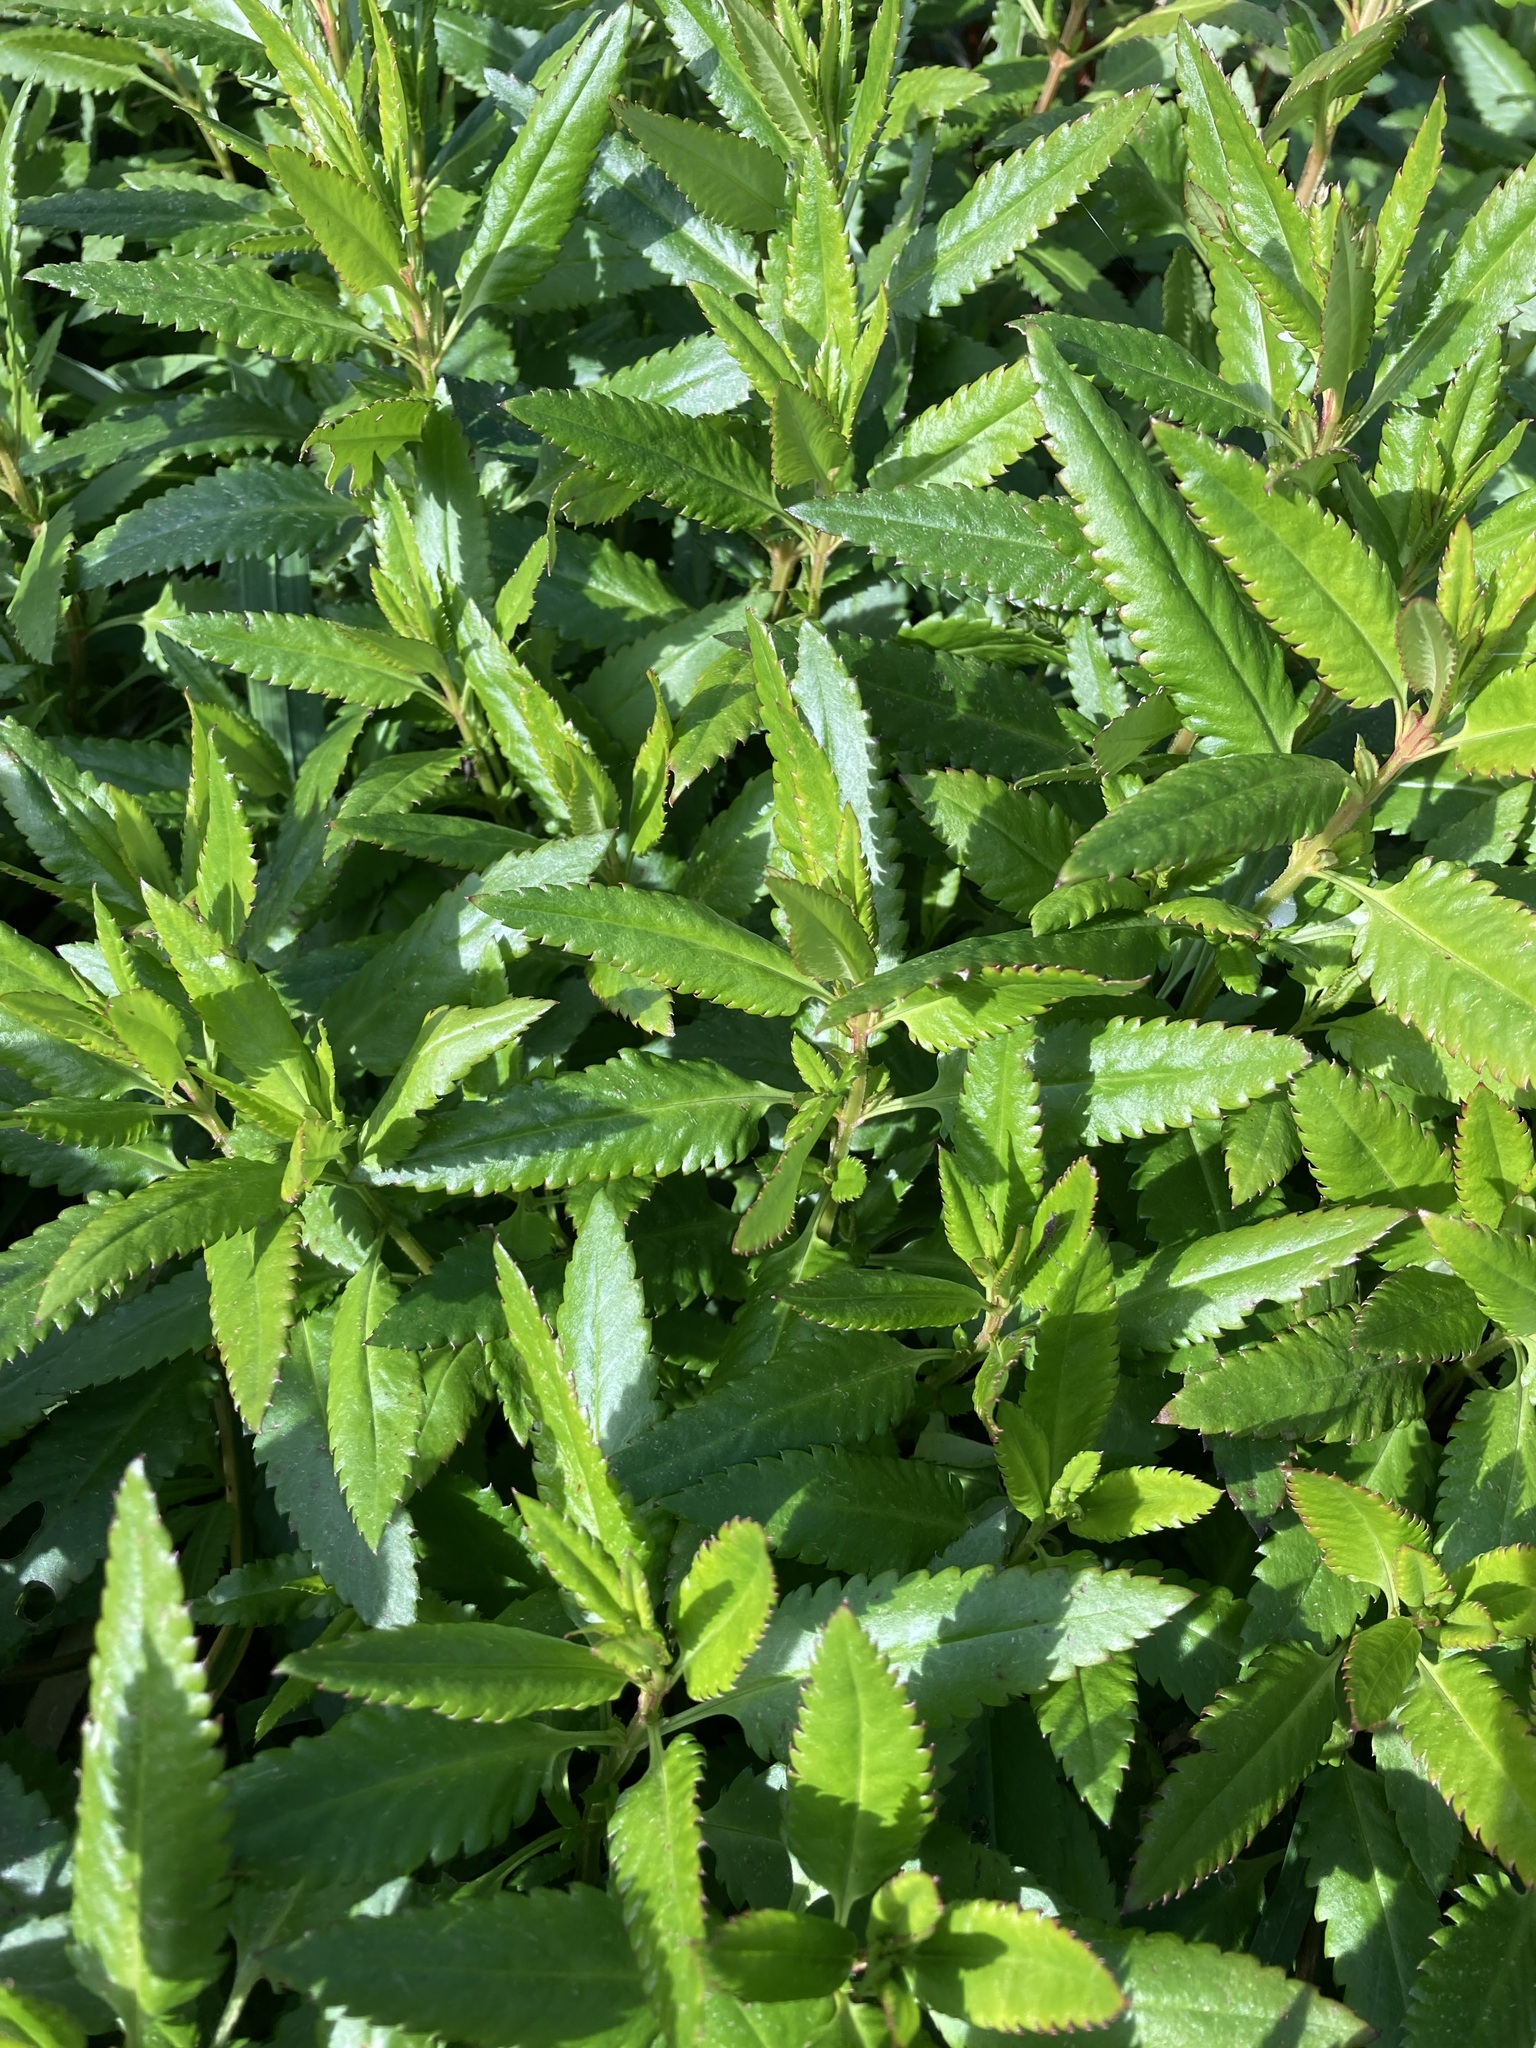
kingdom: Plantae
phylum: Tracheophyta
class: Magnoliopsida
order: Saxifragales
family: Haloragaceae
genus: Haloragis
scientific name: Haloragis erecta
